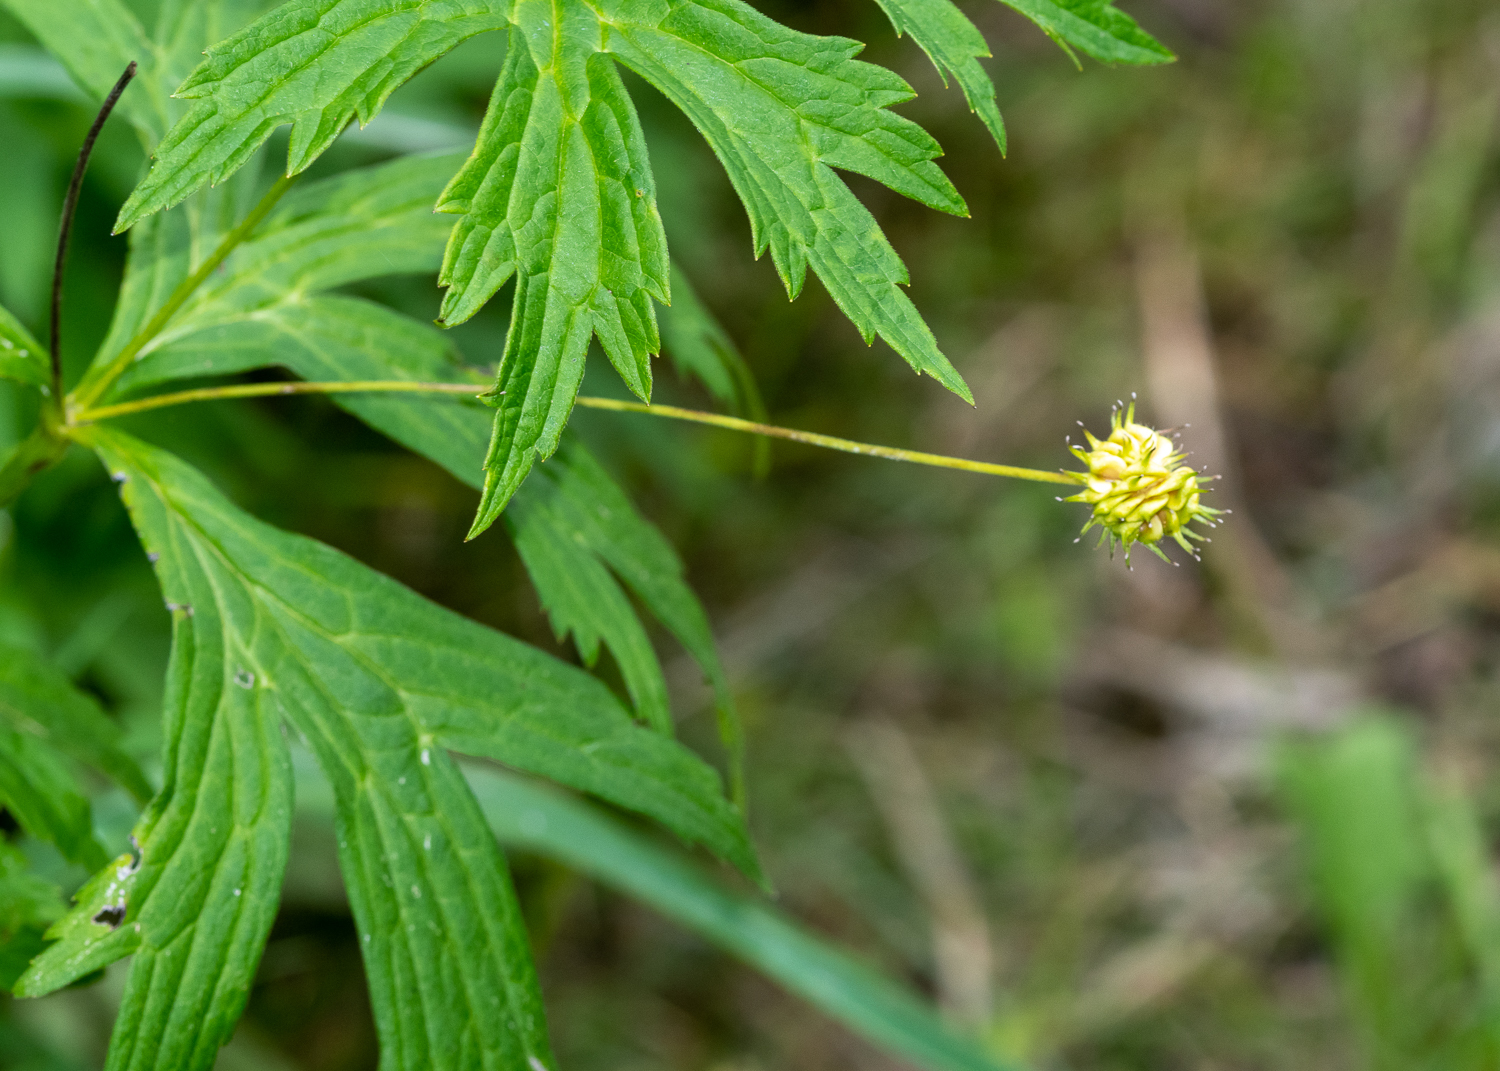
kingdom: Plantae
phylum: Tracheophyta
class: Magnoliopsida
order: Ranunculales
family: Ranunculaceae
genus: Anemonastrum
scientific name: Anemonastrum canadense
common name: Canada anemone
